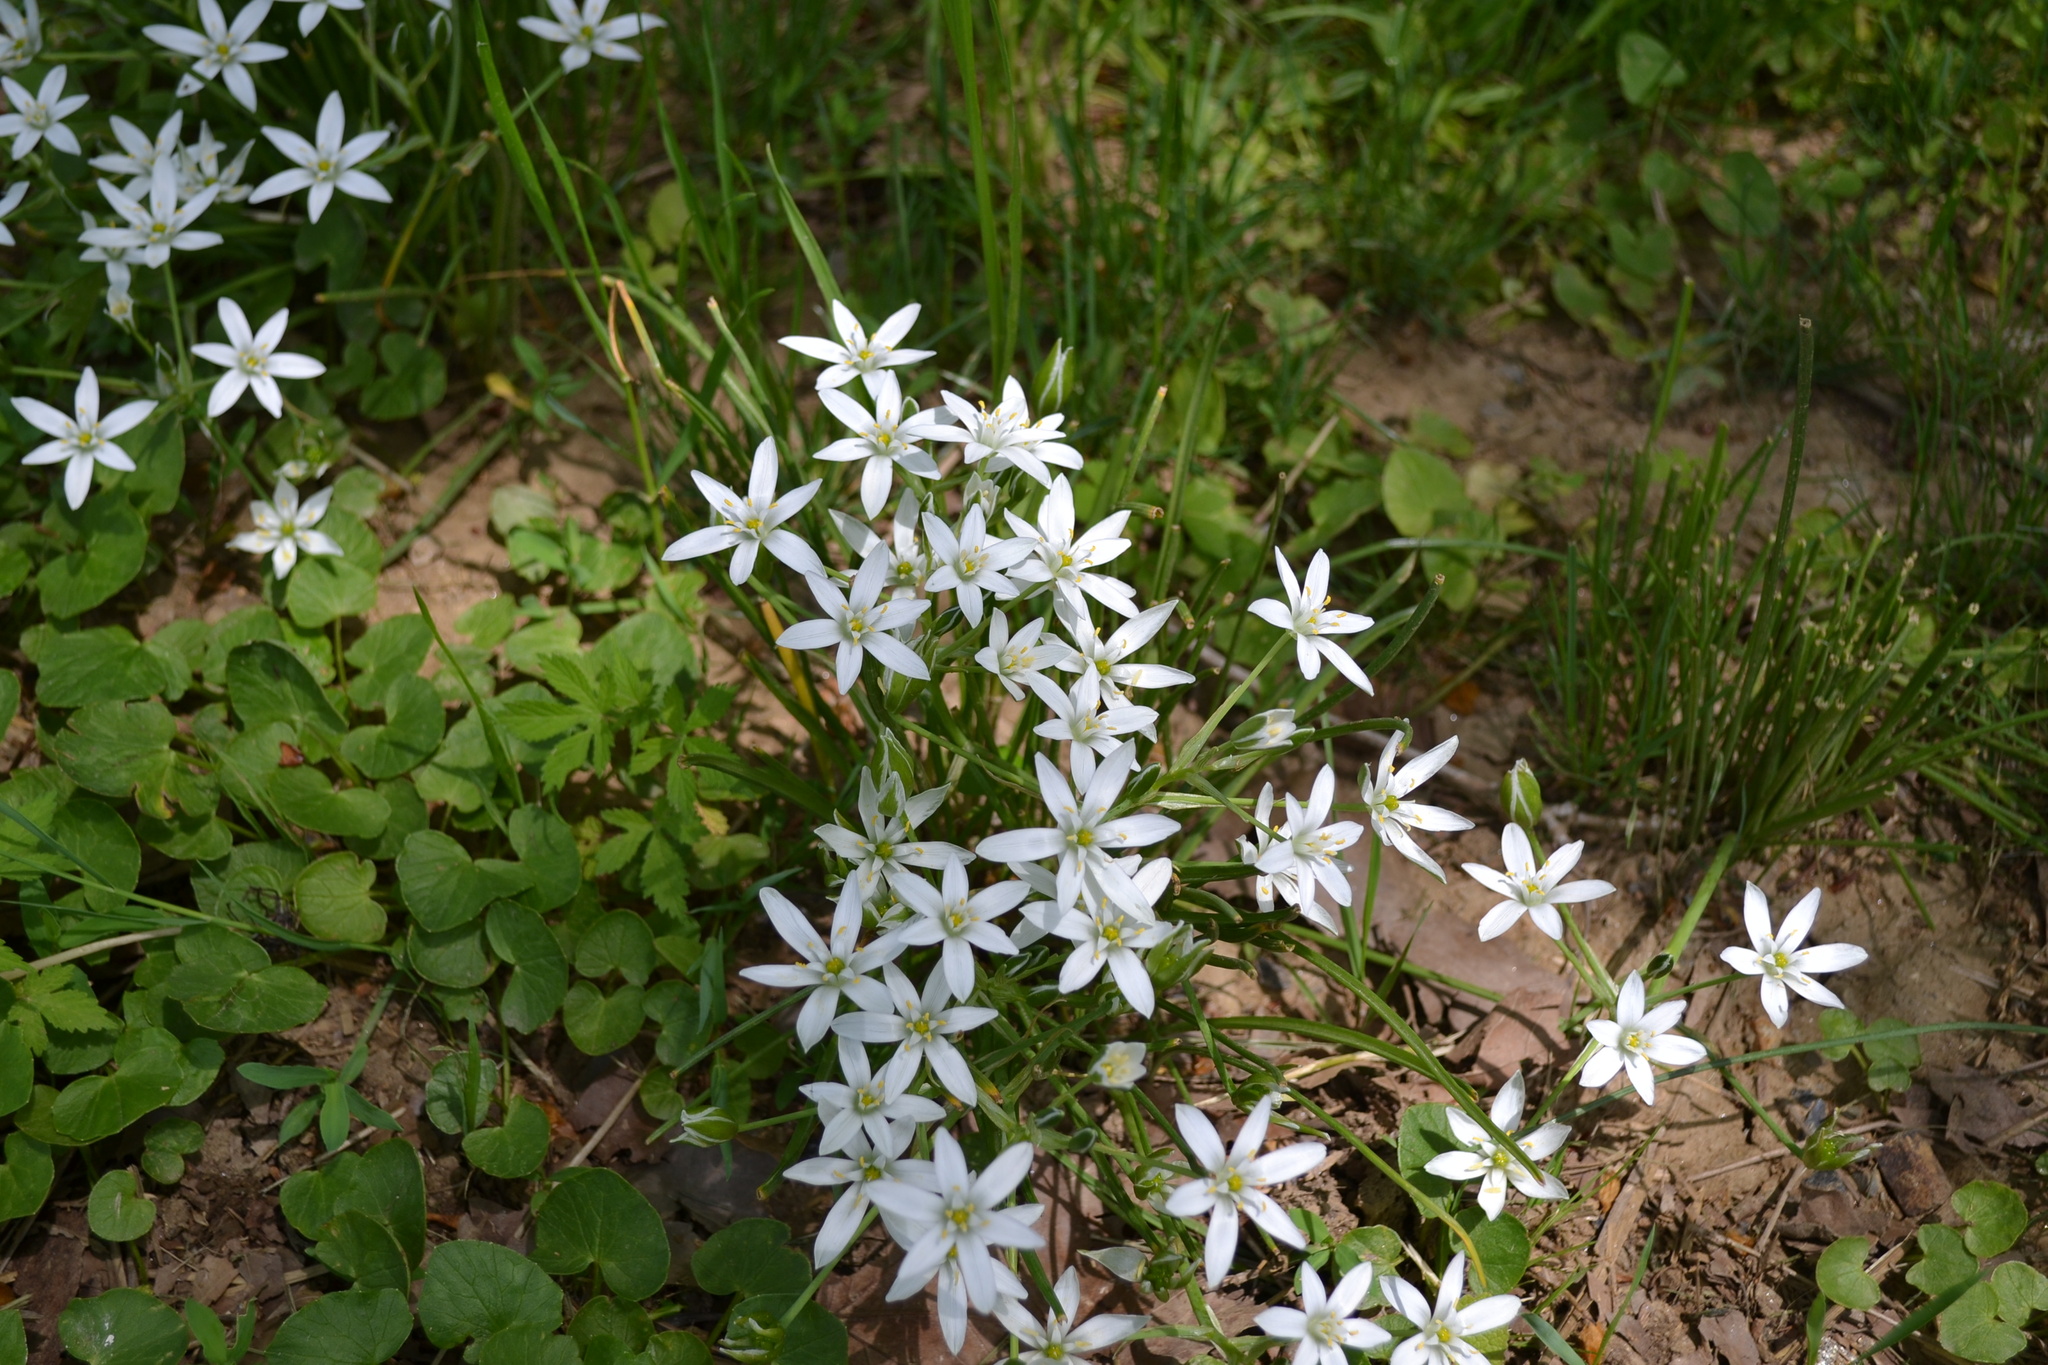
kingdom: Plantae
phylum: Tracheophyta
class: Liliopsida
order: Asparagales
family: Asparagaceae
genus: Ornithogalum
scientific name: Ornithogalum umbellatum
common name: Garden star-of-bethlehem
